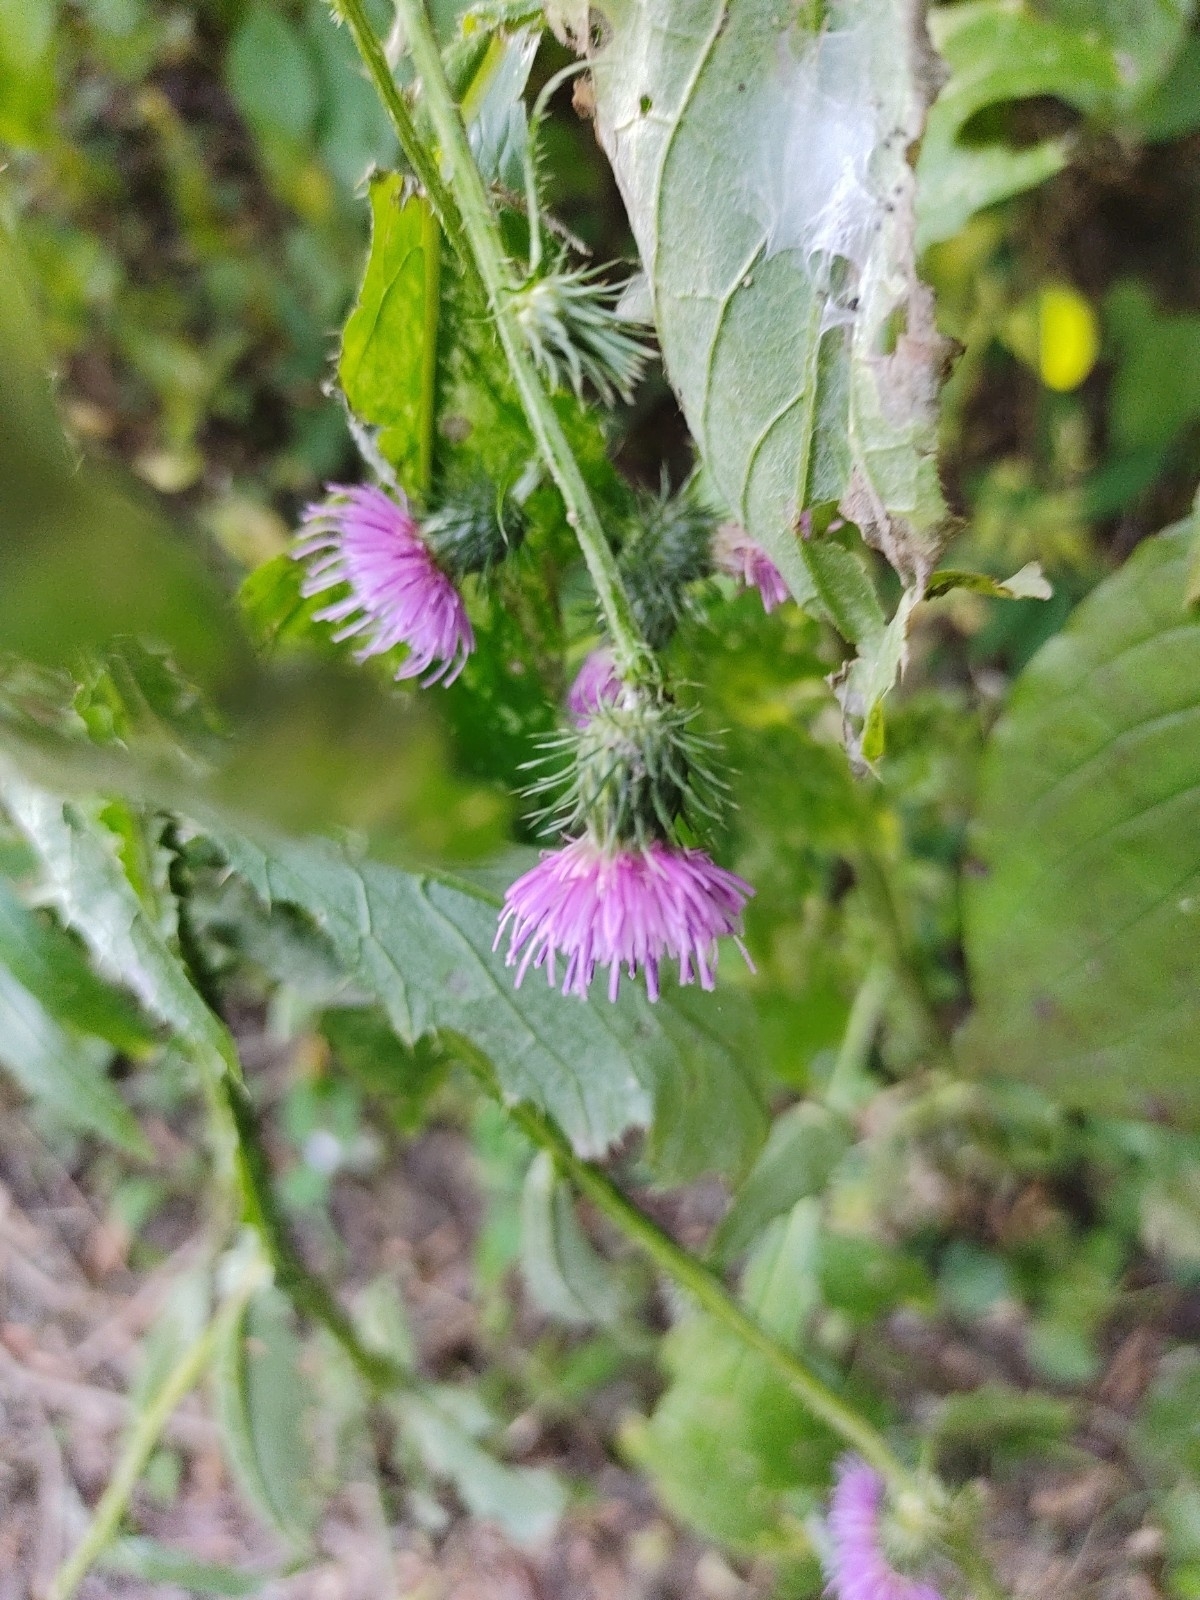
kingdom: Plantae
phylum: Tracheophyta
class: Magnoliopsida
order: Asterales
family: Asteraceae
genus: Carduus
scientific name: Carduus crispus
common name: Welted thistle
